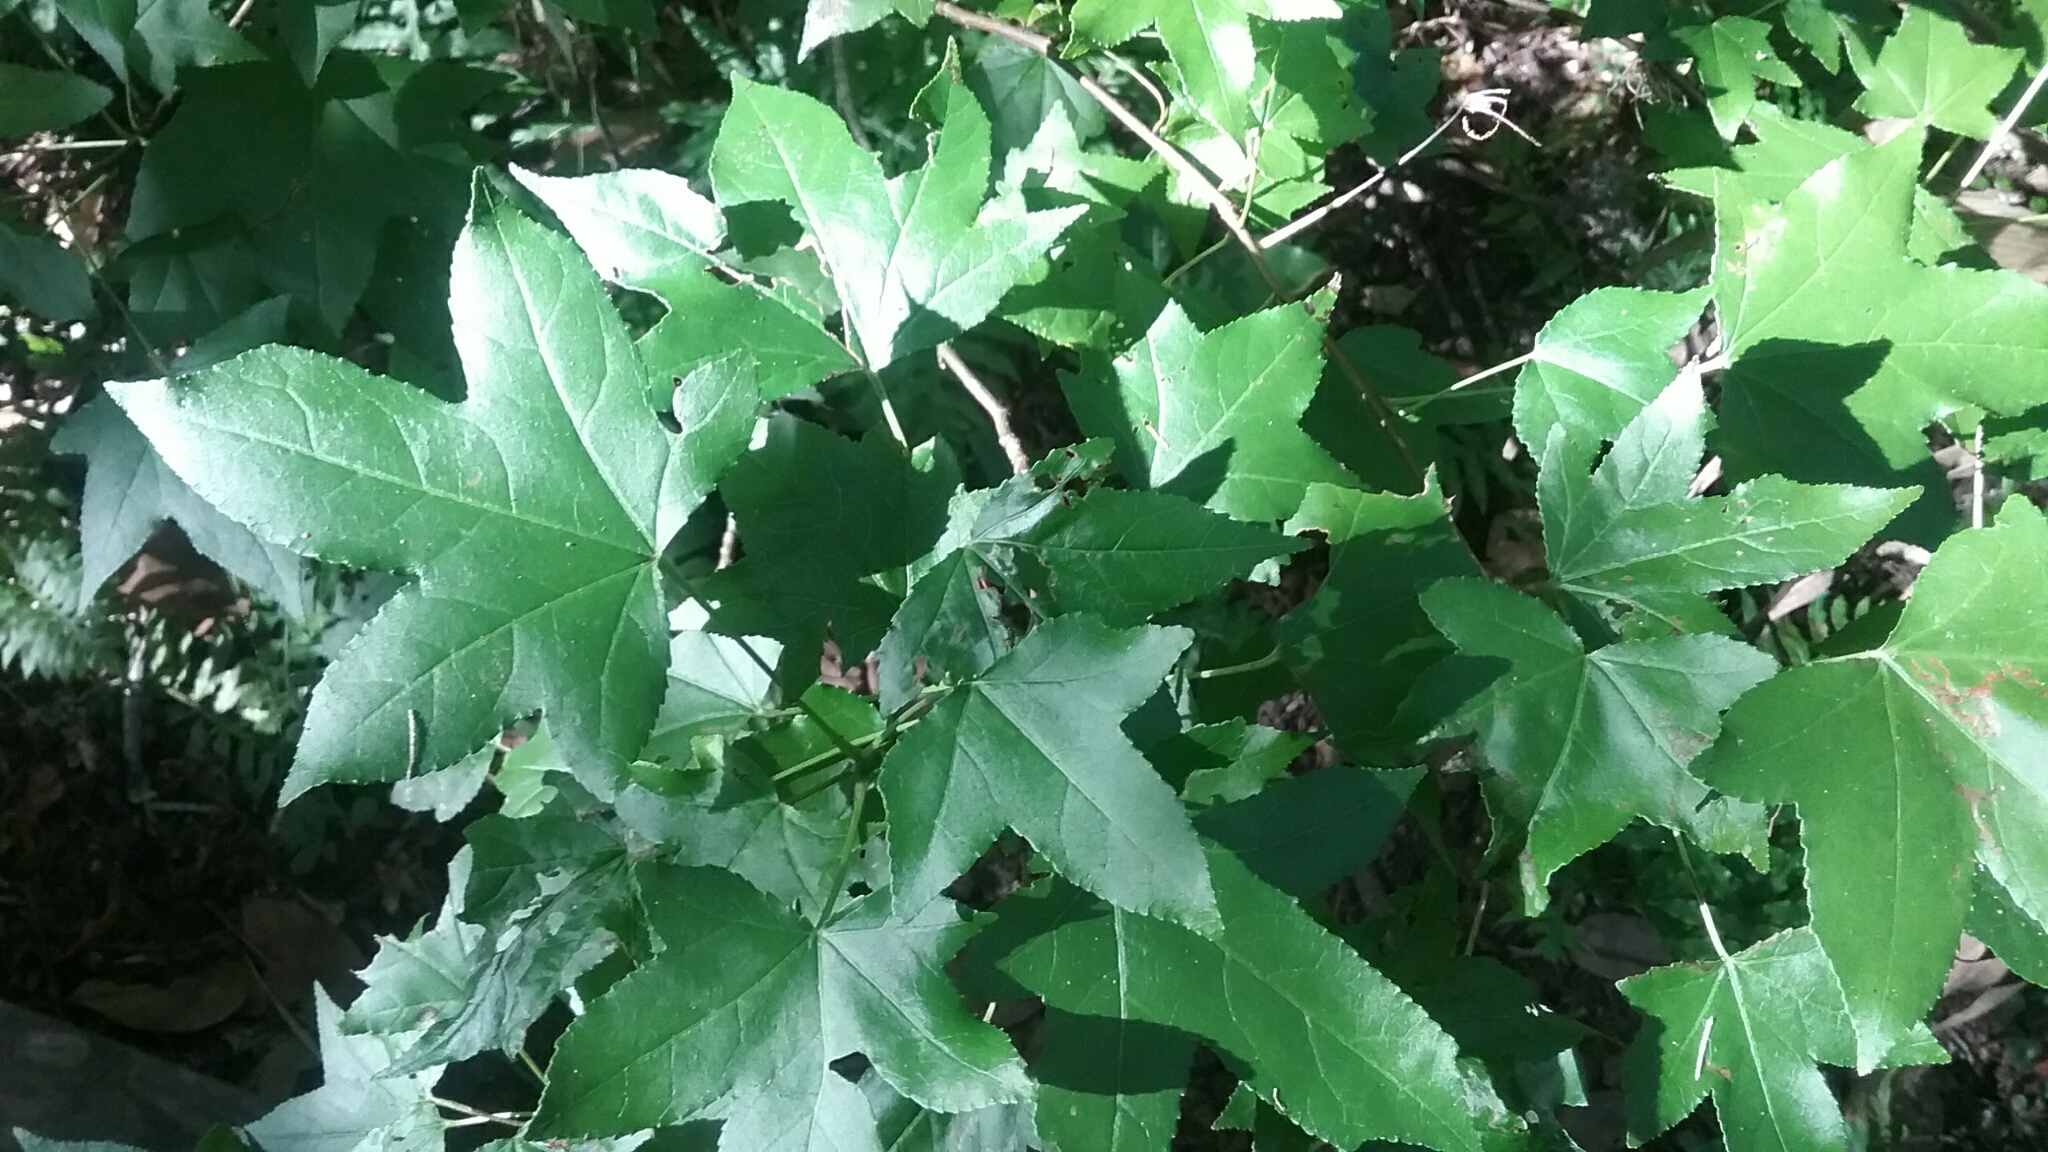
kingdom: Plantae
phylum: Tracheophyta
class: Magnoliopsida
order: Saxifragales
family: Altingiaceae
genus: Liquidambar
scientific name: Liquidambar styraciflua
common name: Sweet gum
